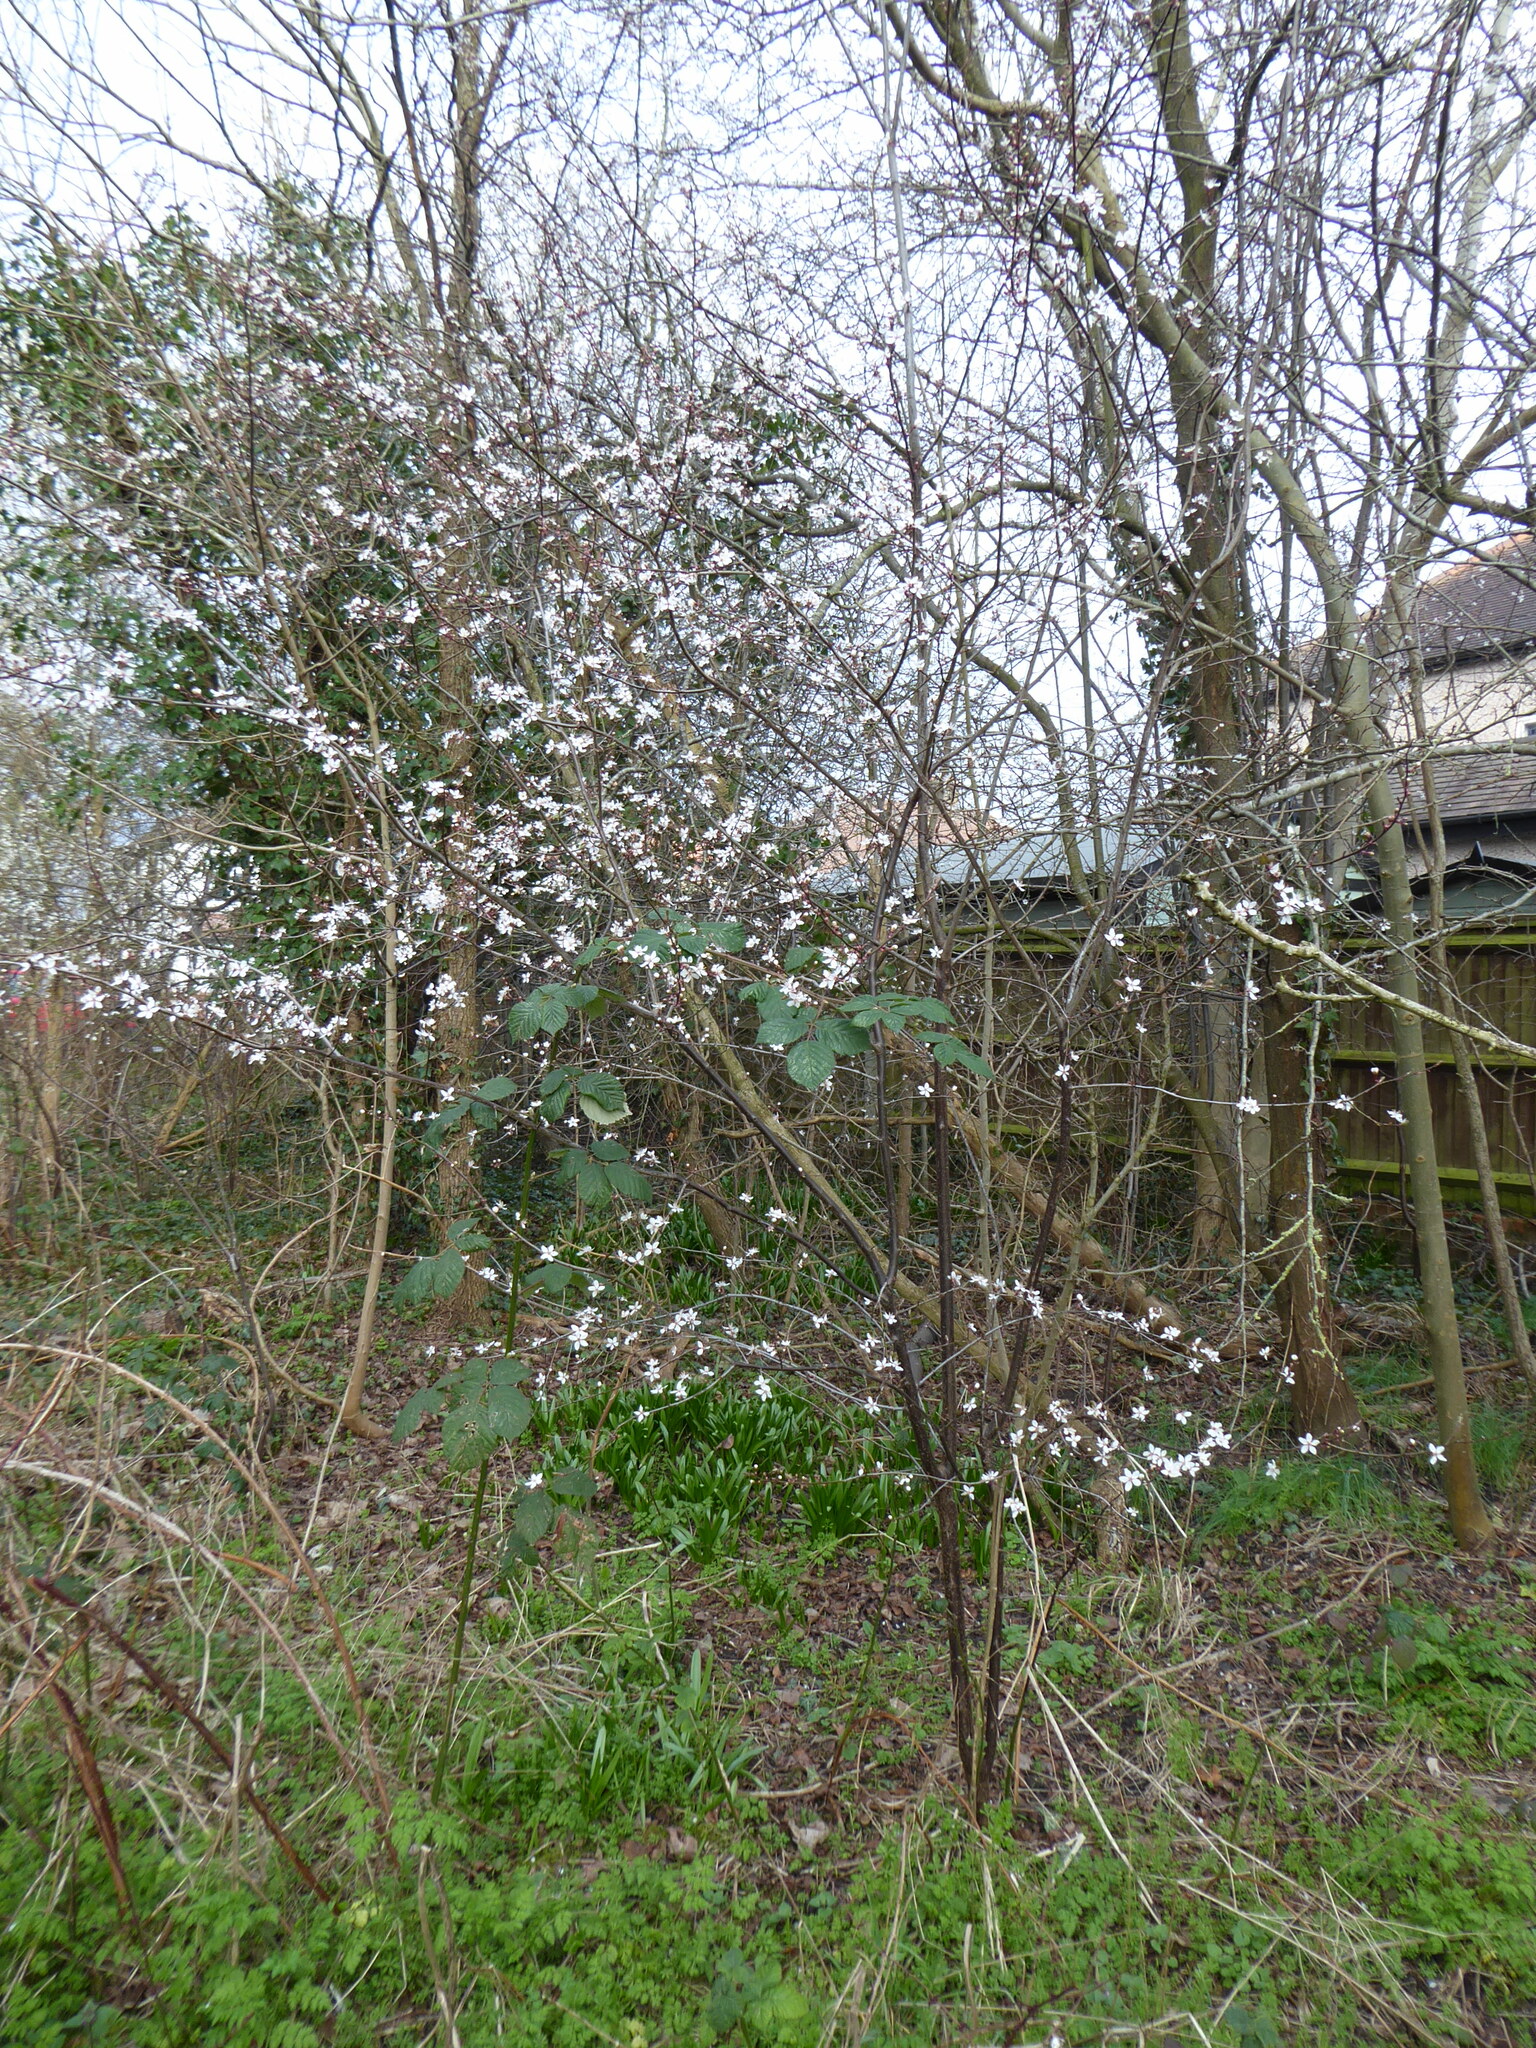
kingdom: Plantae
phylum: Tracheophyta
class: Magnoliopsida
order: Rosales
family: Rosaceae
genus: Prunus
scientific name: Prunus cerasifera
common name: Cherry plum
